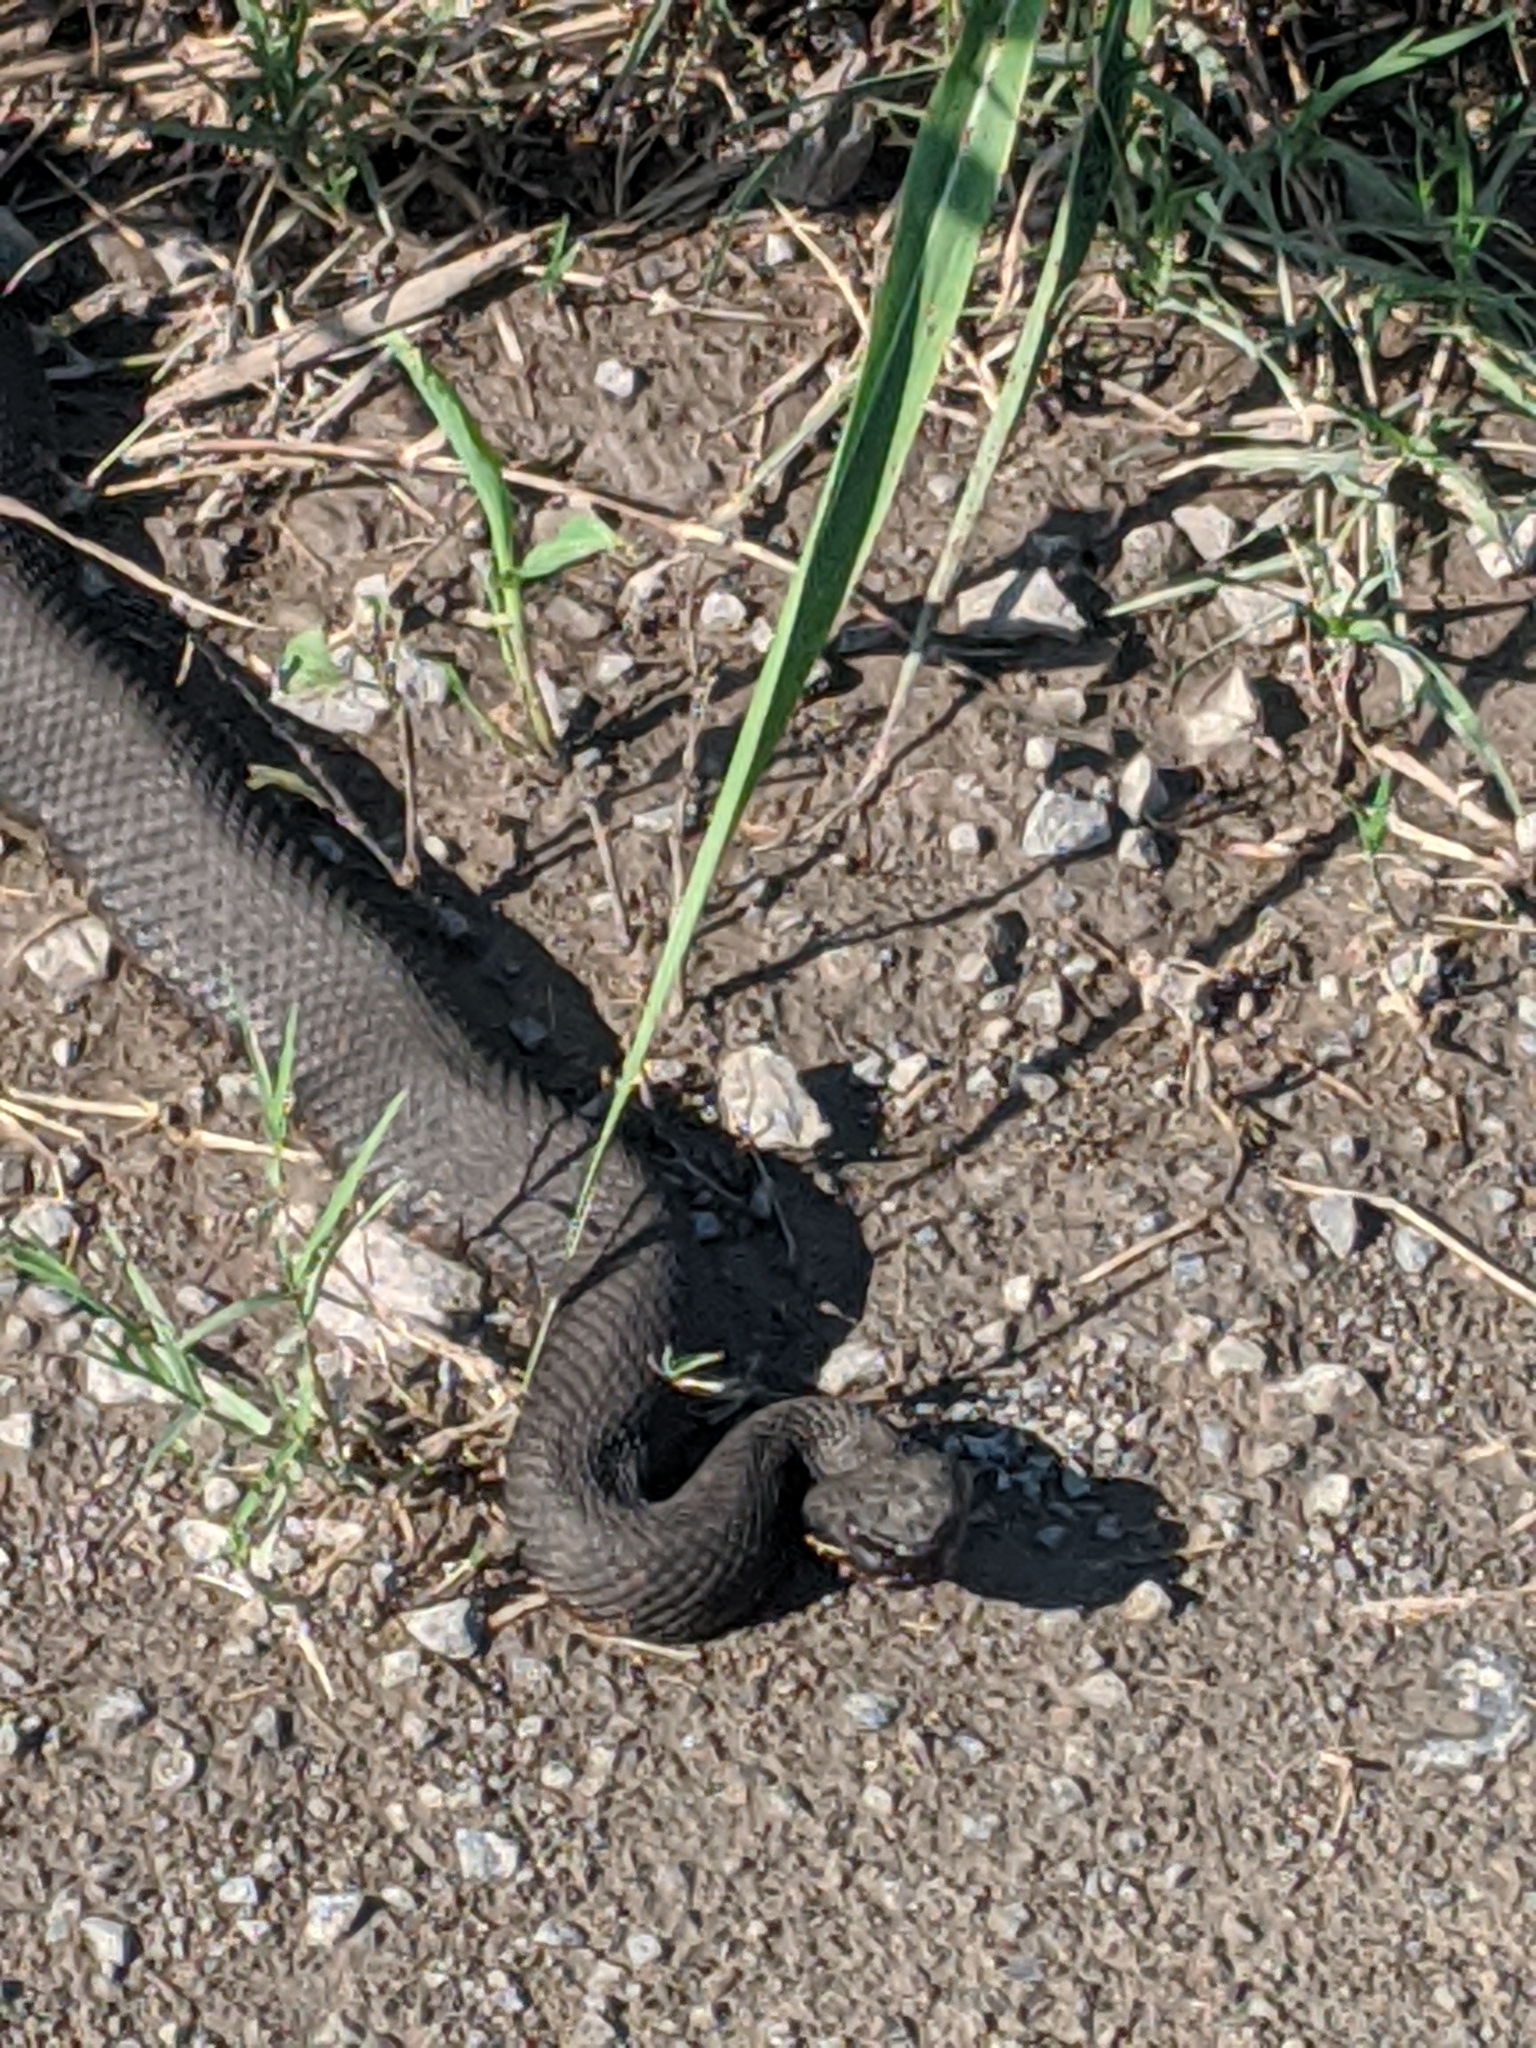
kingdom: Animalia
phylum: Chordata
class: Squamata
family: Viperidae
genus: Agkistrodon
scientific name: Agkistrodon piscivorus
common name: Cottonmouth
